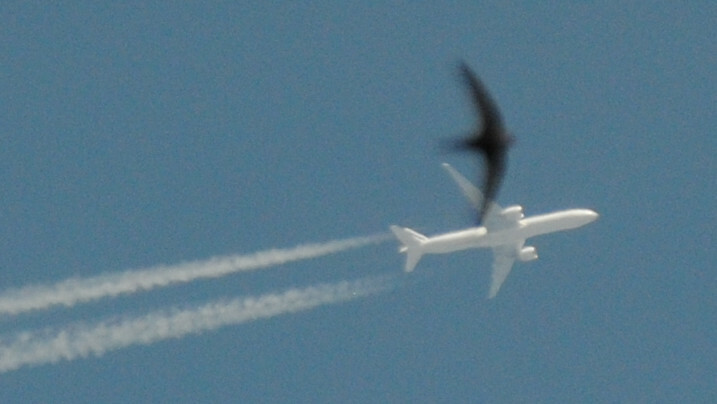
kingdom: Animalia
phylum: Chordata
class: Aves
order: Apodiformes
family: Apodidae
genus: Apus
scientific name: Apus apus
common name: Common swift
